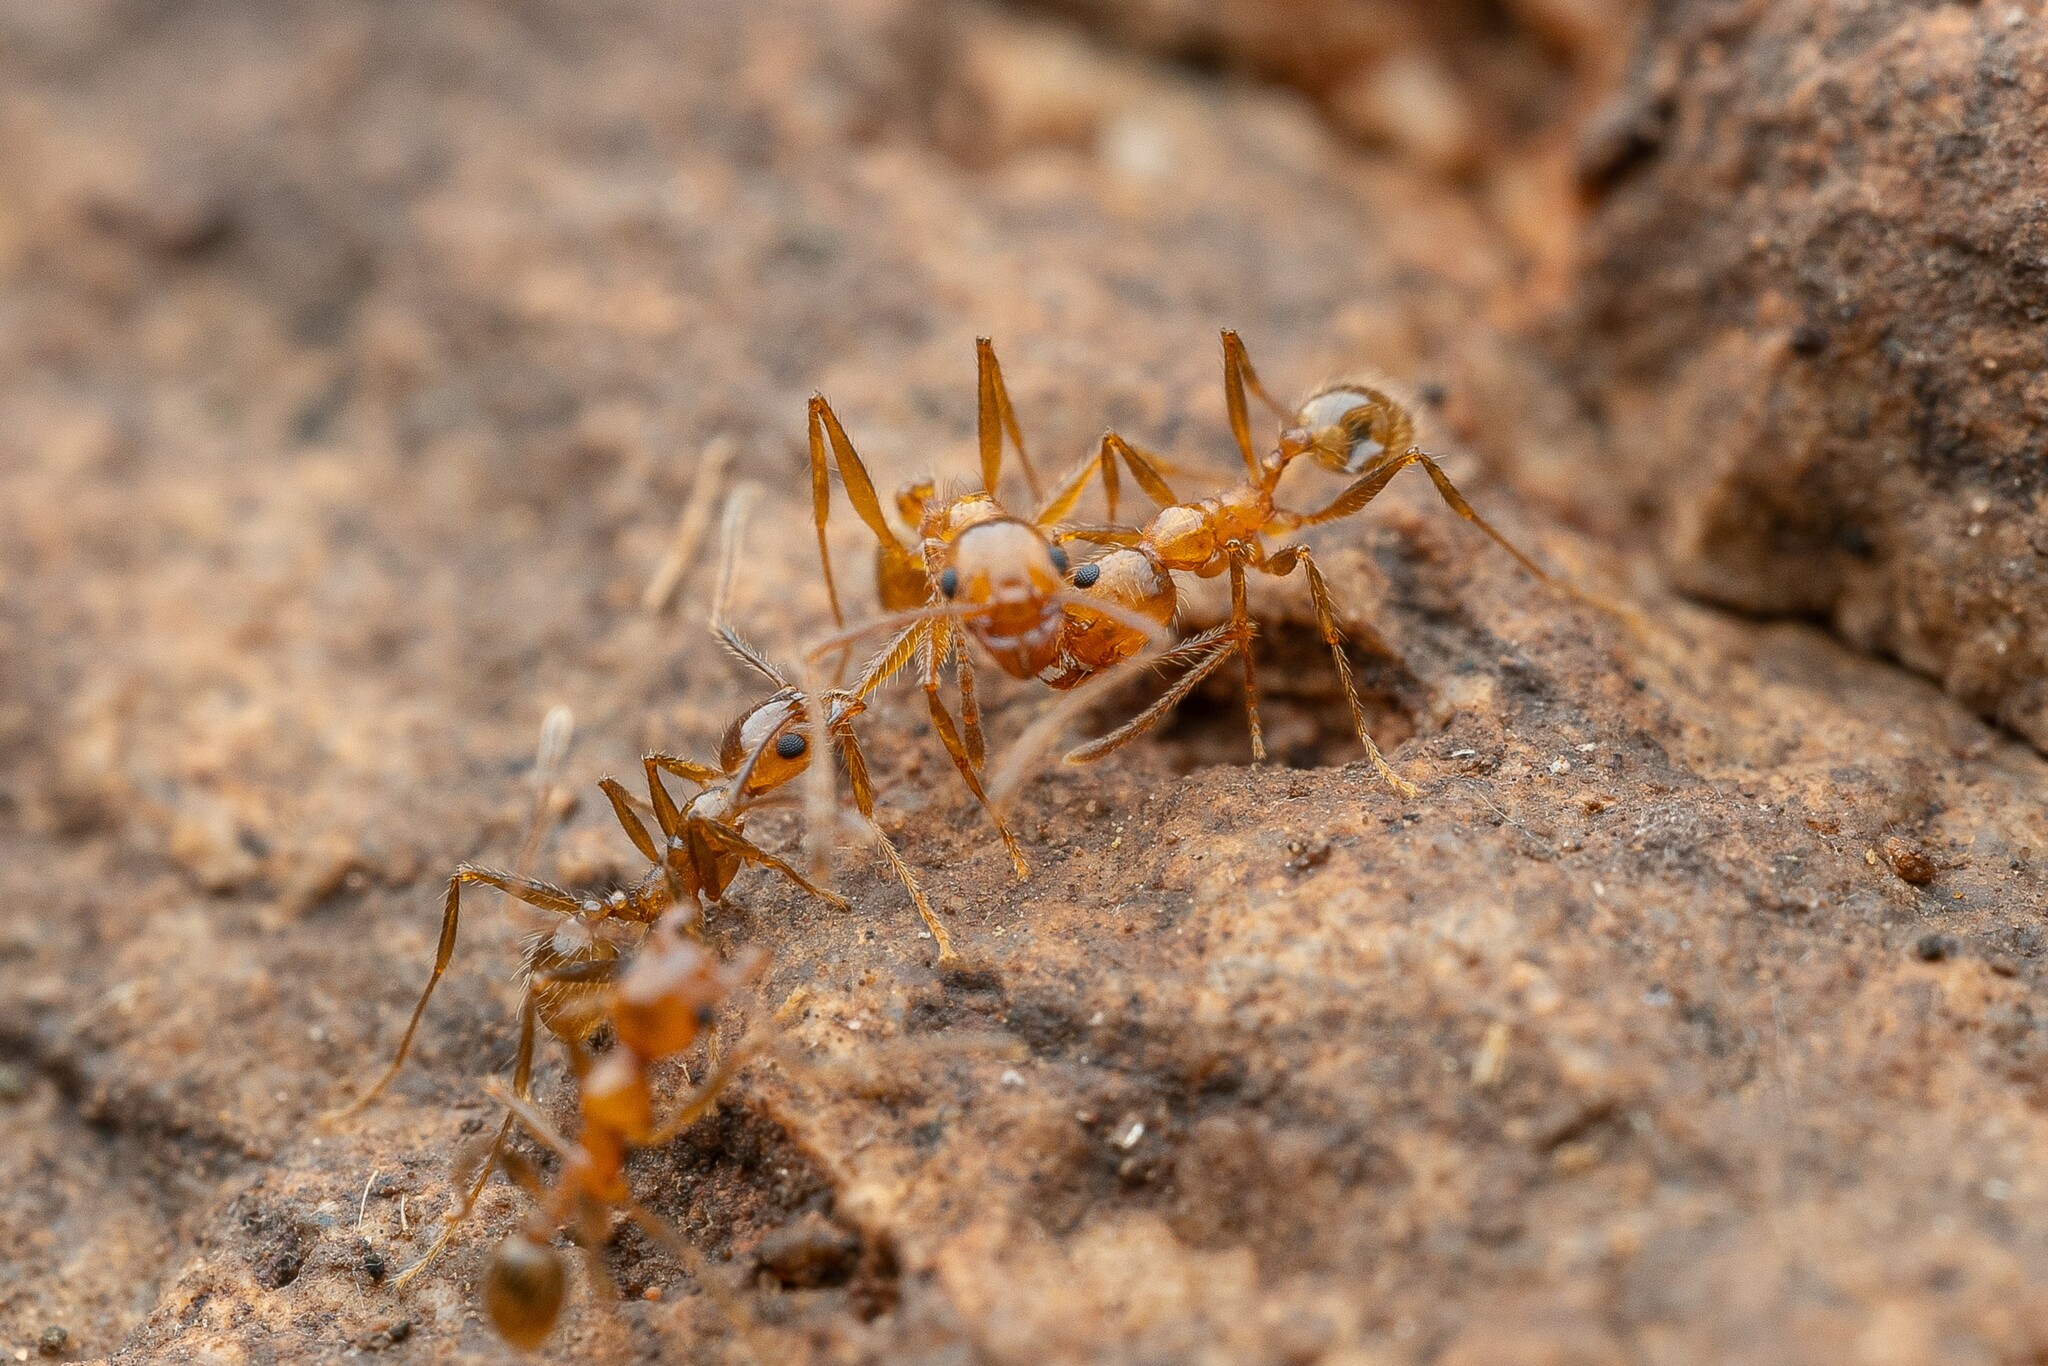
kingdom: Animalia
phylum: Arthropoda
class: Insecta
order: Hymenoptera
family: Formicidae
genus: Pheidole
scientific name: Pheidole hyatti
